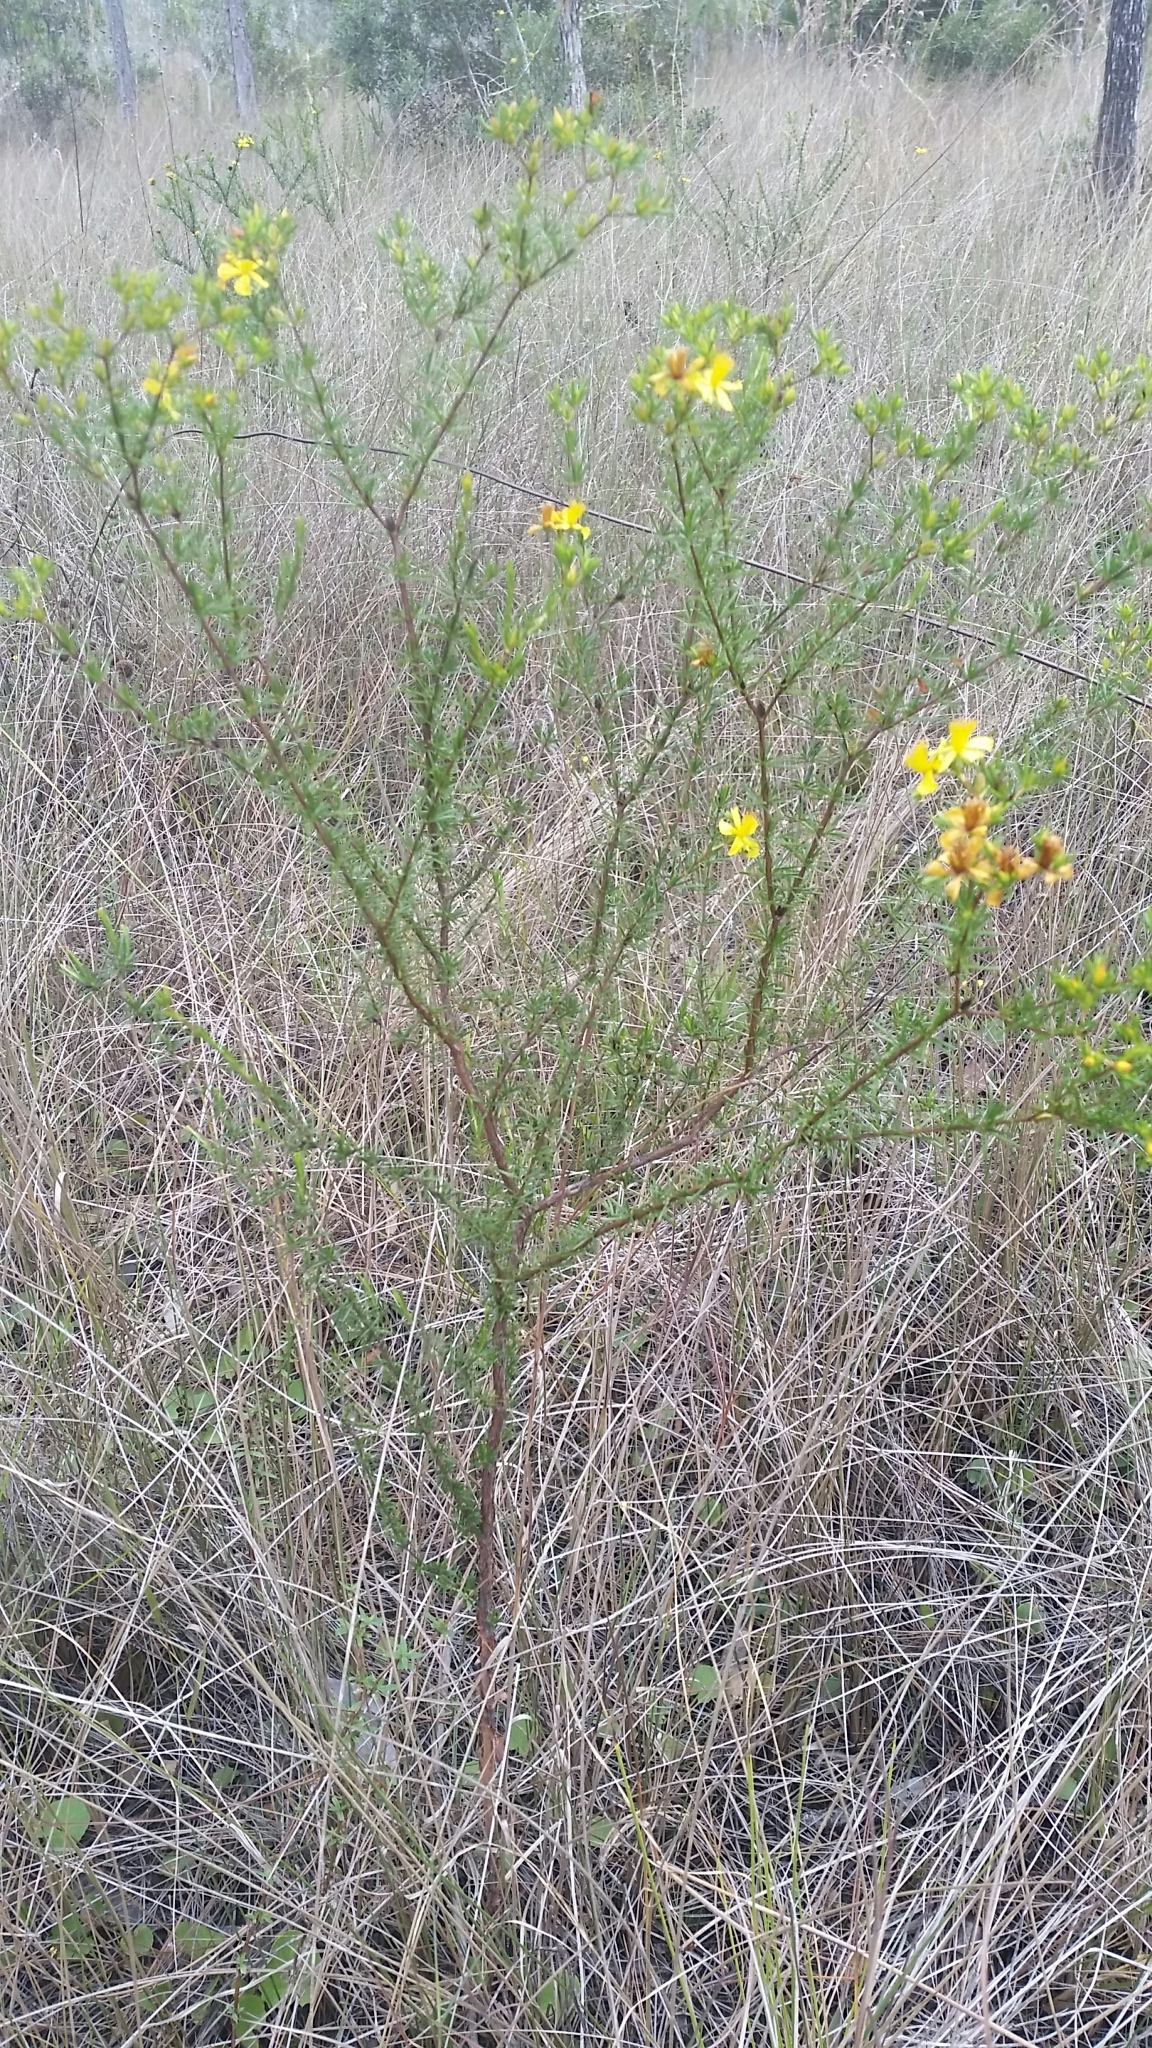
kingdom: Plantae
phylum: Tracheophyta
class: Magnoliopsida
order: Malpighiales
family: Hypericaceae
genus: Hypericum
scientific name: Hypericum fasciculatum
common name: Peelbark st. john's wort
